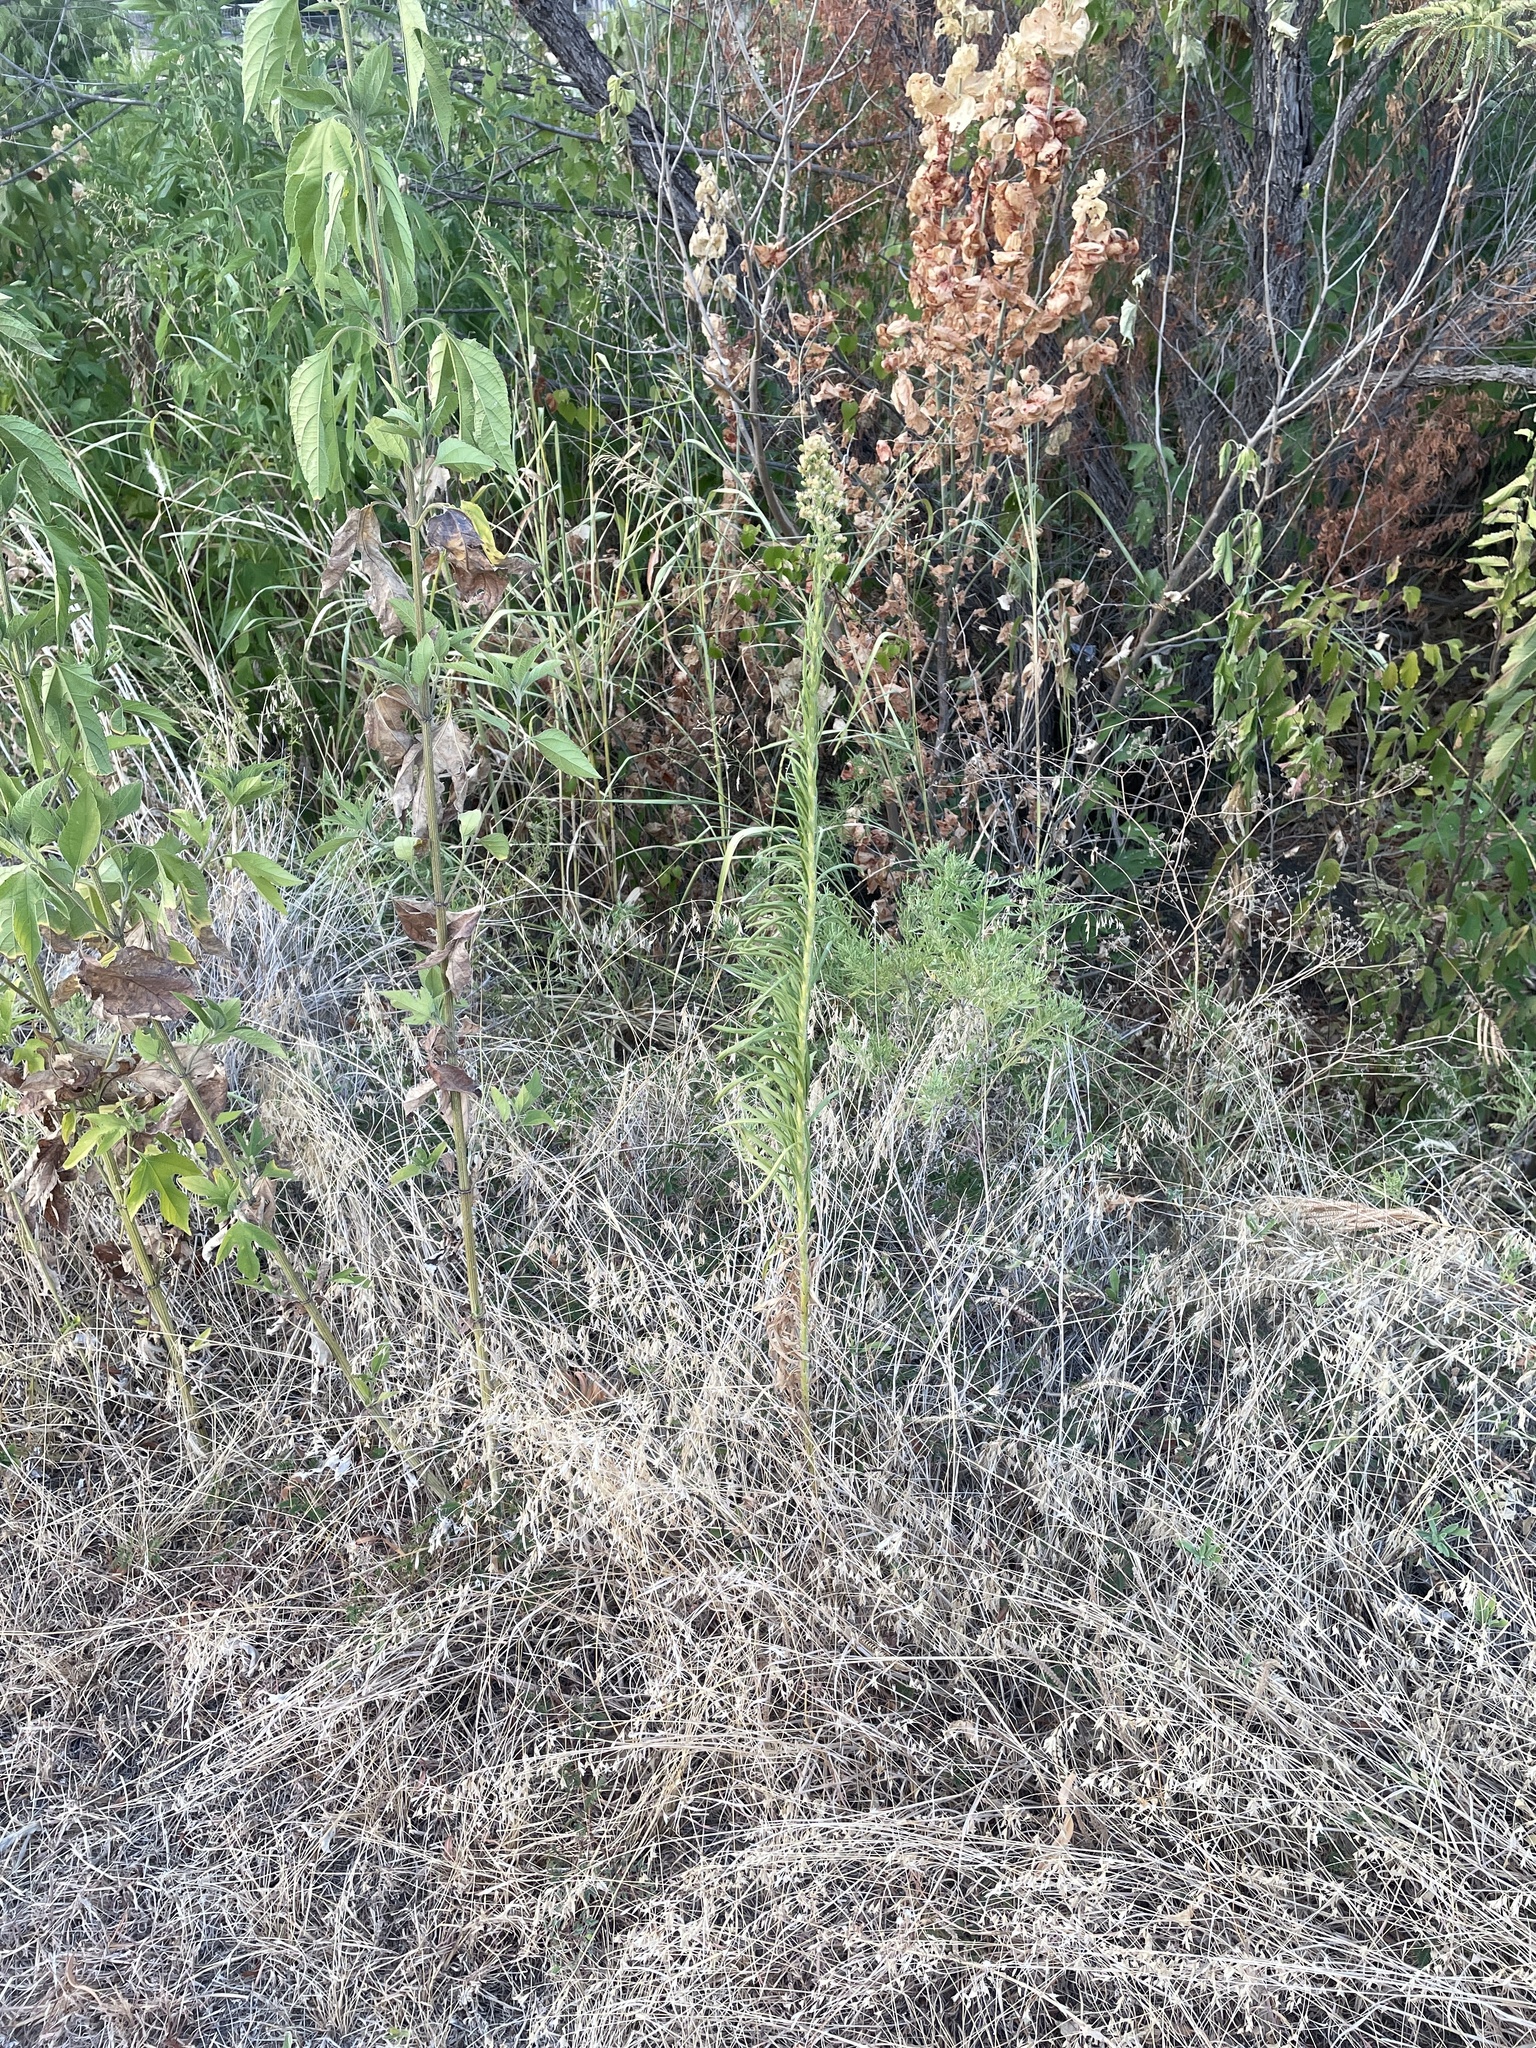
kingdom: Plantae
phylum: Tracheophyta
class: Magnoliopsida
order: Asterales
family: Asteraceae
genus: Erigeron
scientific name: Erigeron canadensis
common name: Canadian fleabane
